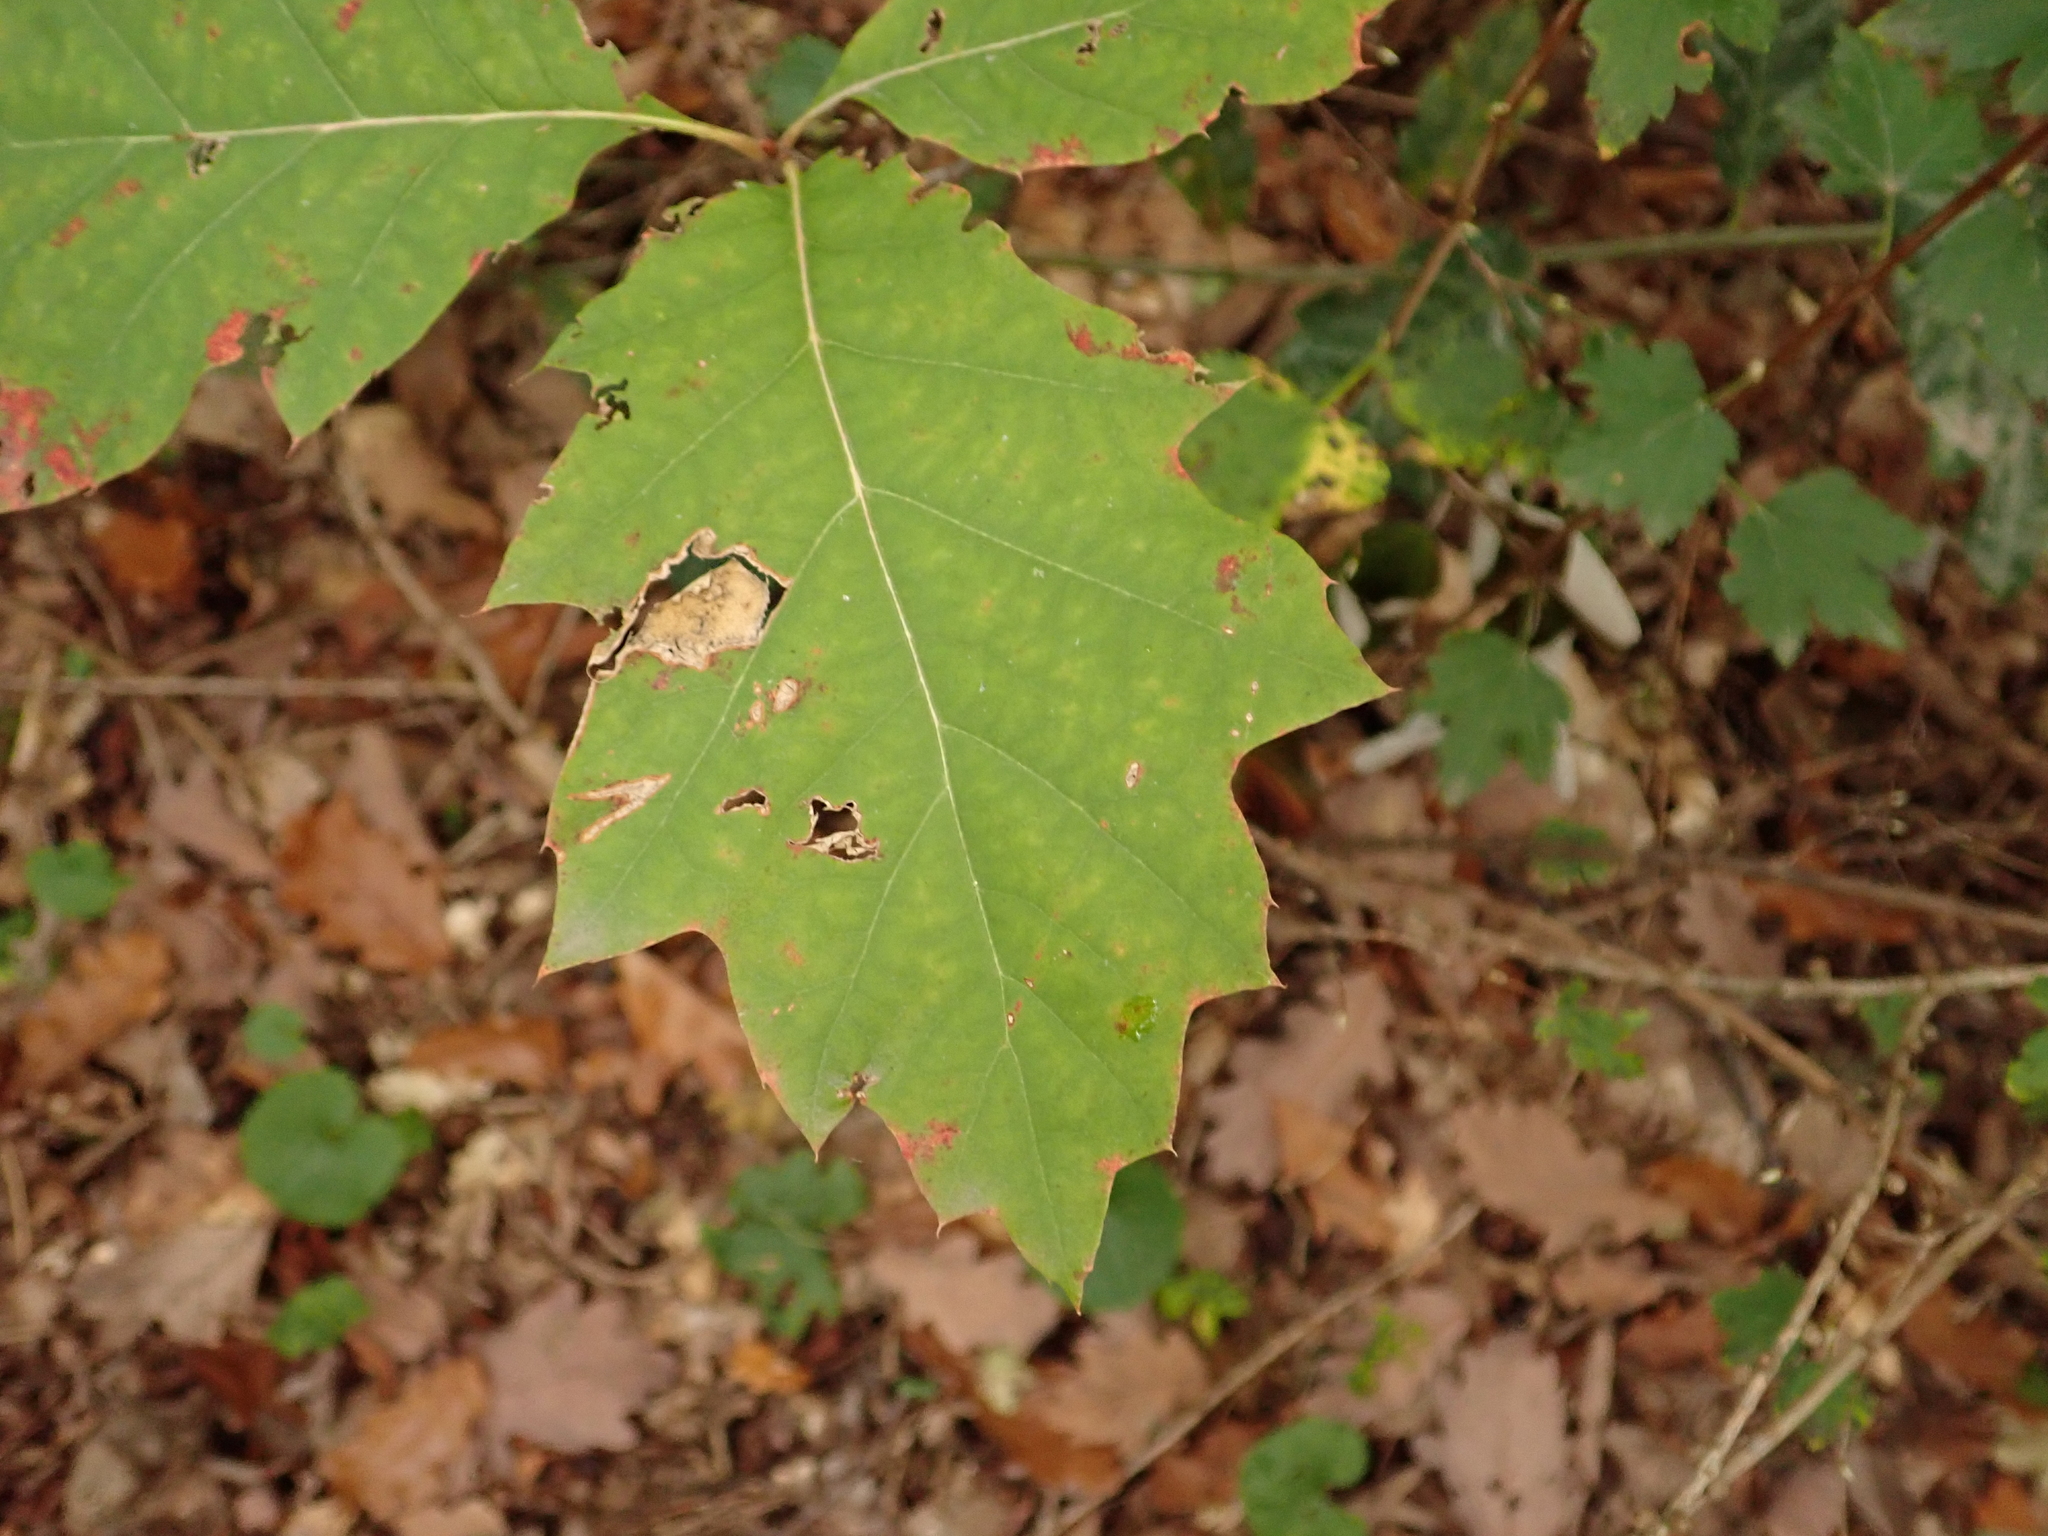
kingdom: Plantae
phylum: Tracheophyta
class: Magnoliopsida
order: Fagales
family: Fagaceae
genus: Quercus
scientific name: Quercus rubra
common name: Red oak
